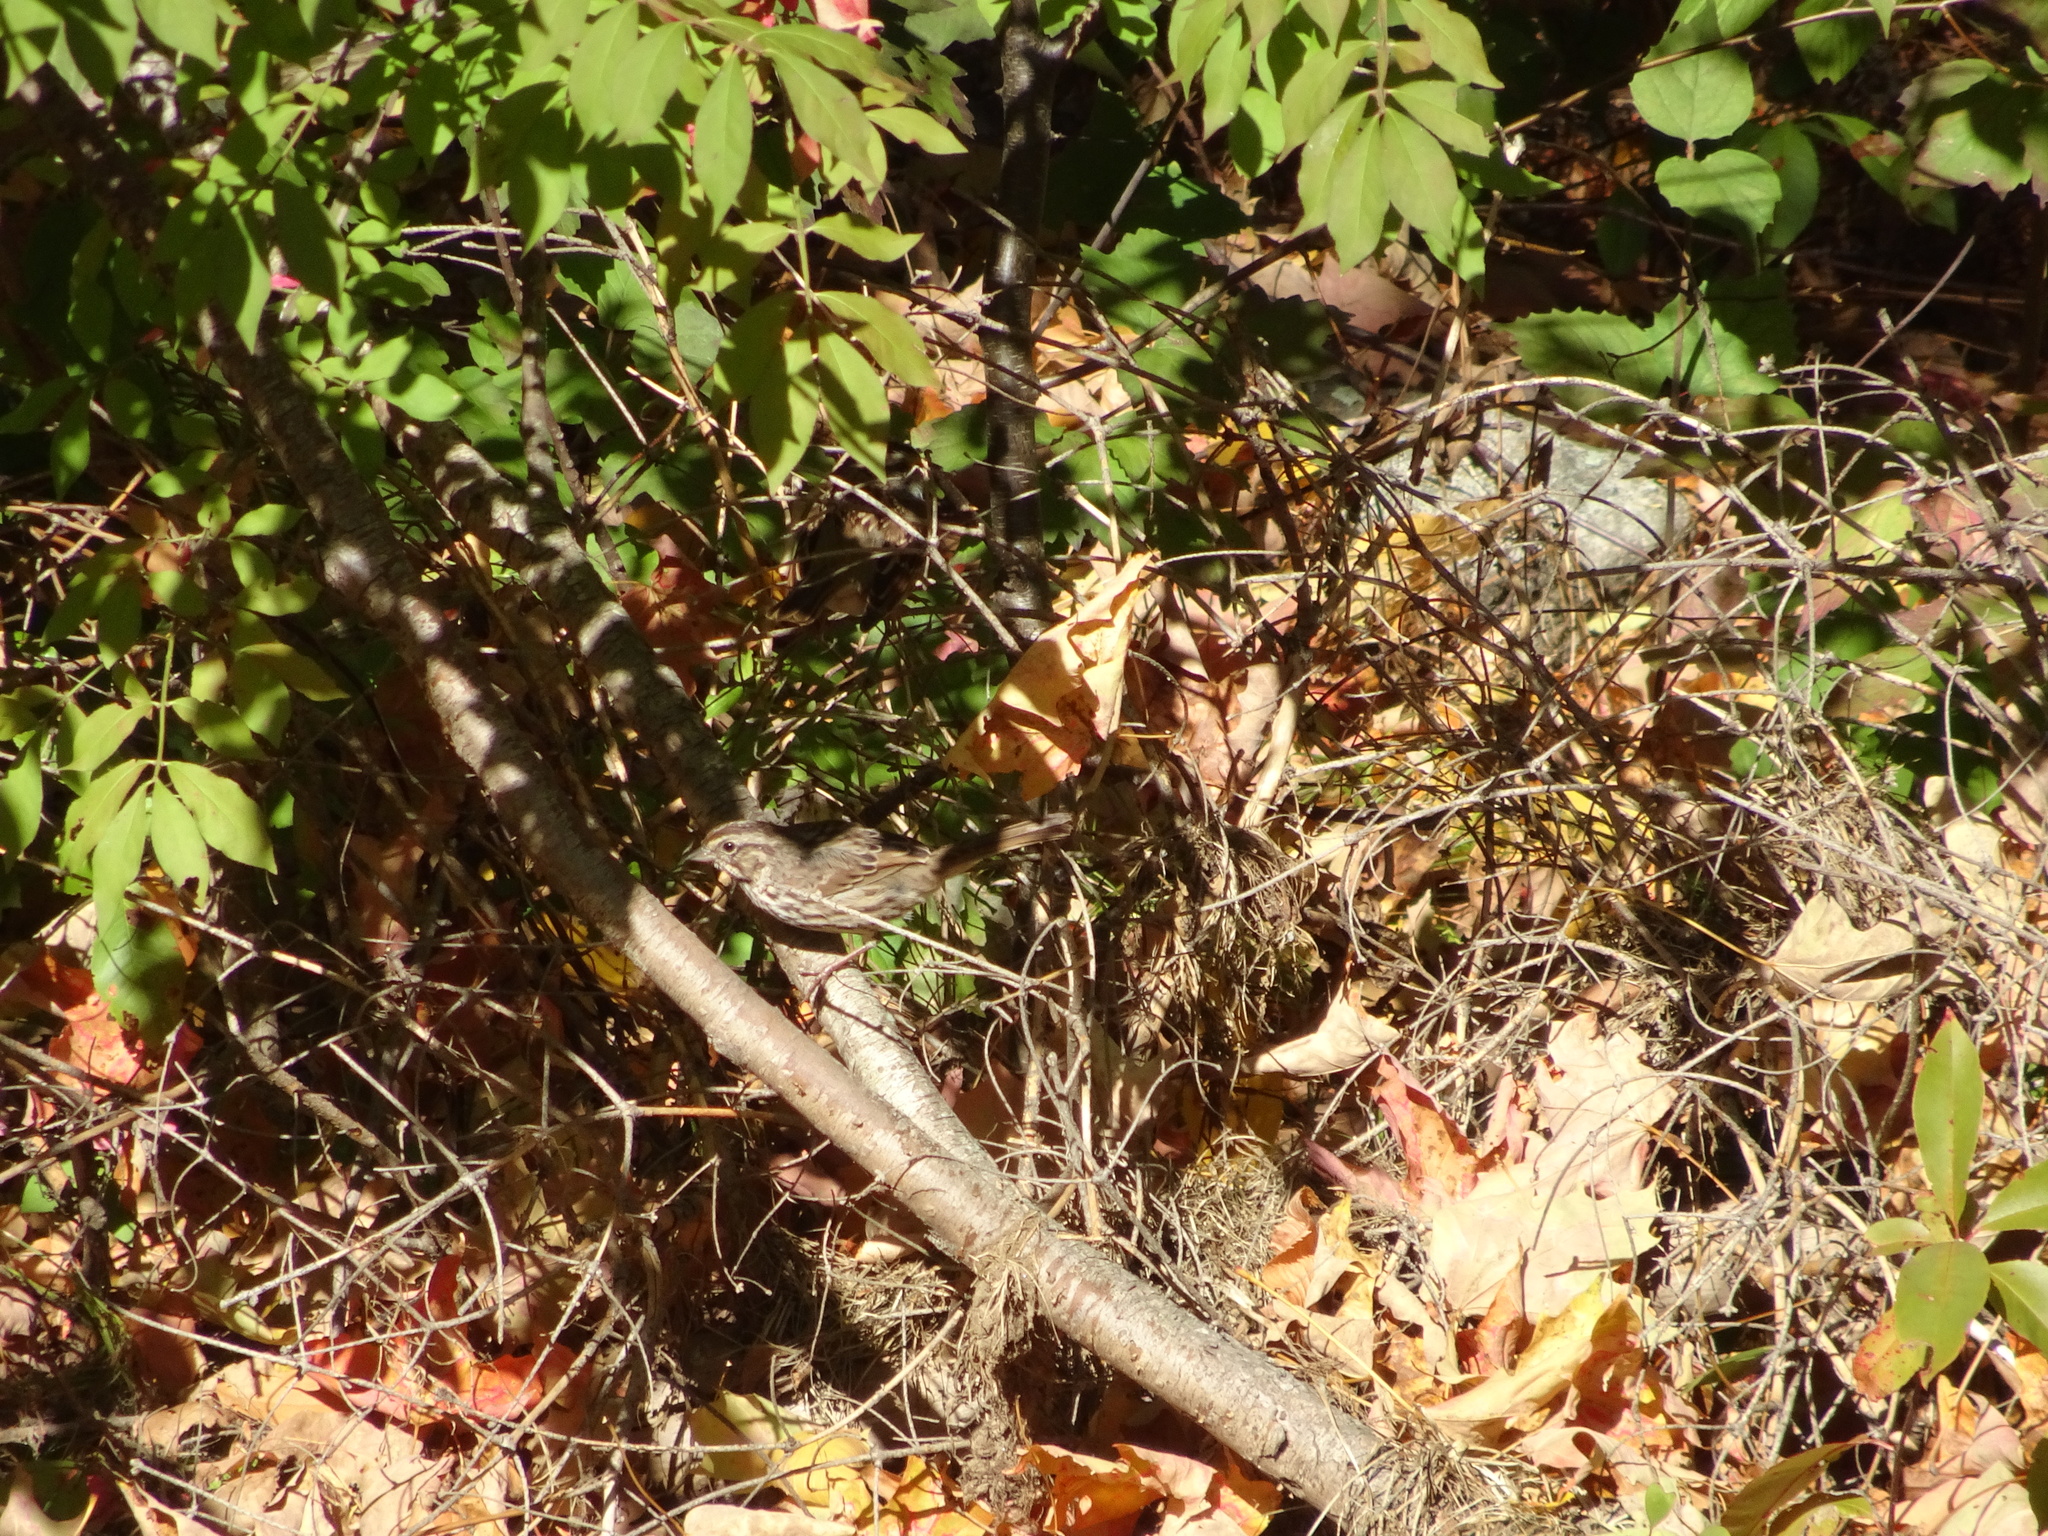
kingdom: Animalia
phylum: Chordata
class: Aves
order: Passeriformes
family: Passerellidae
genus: Melospiza
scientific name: Melospiza melodia
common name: Song sparrow
